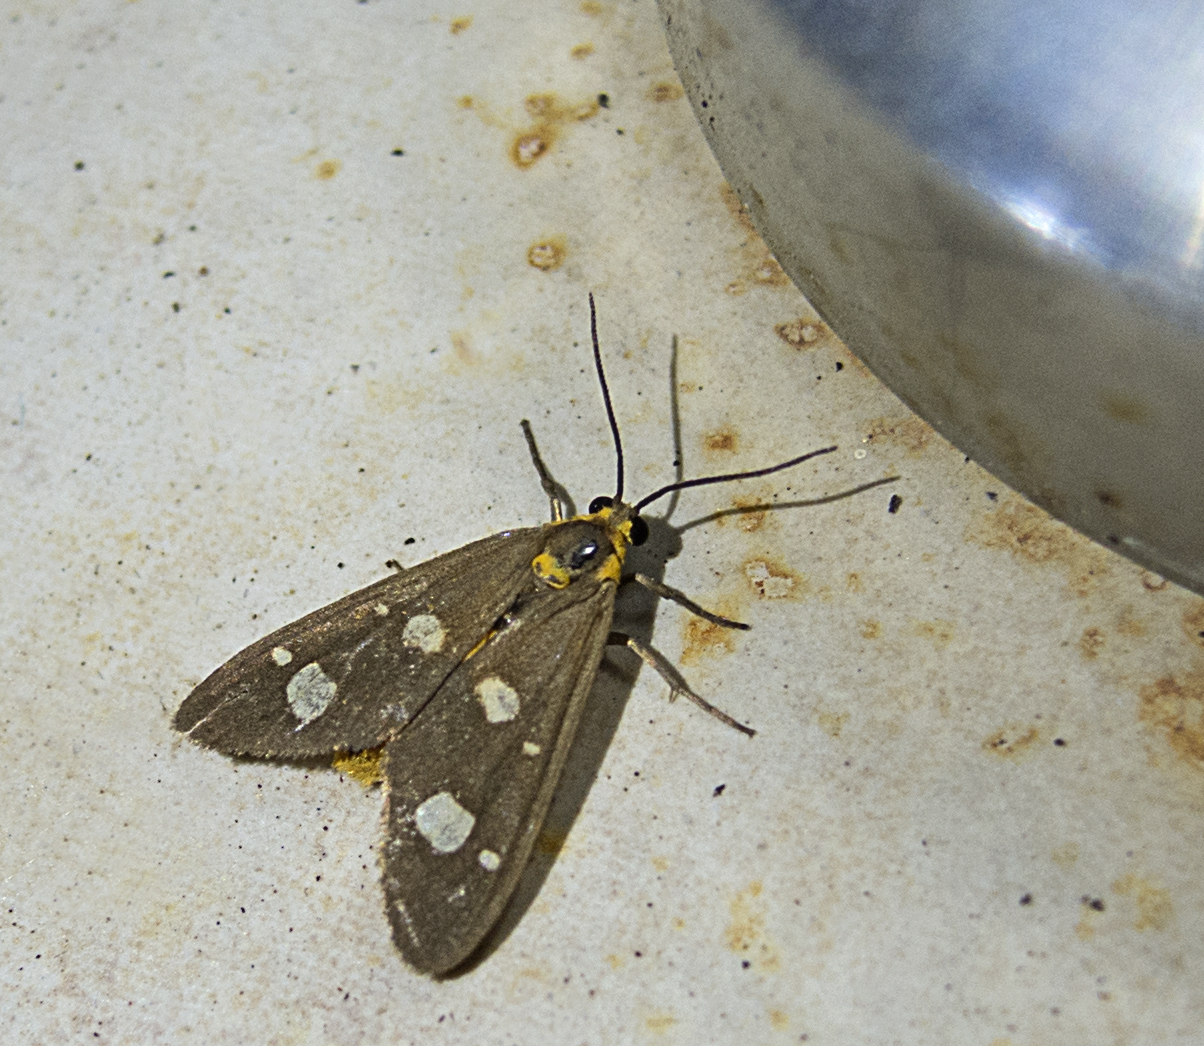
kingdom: Animalia
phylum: Arthropoda
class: Insecta
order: Lepidoptera
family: Erebidae
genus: Dysauxes
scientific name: Dysauxes punctata
